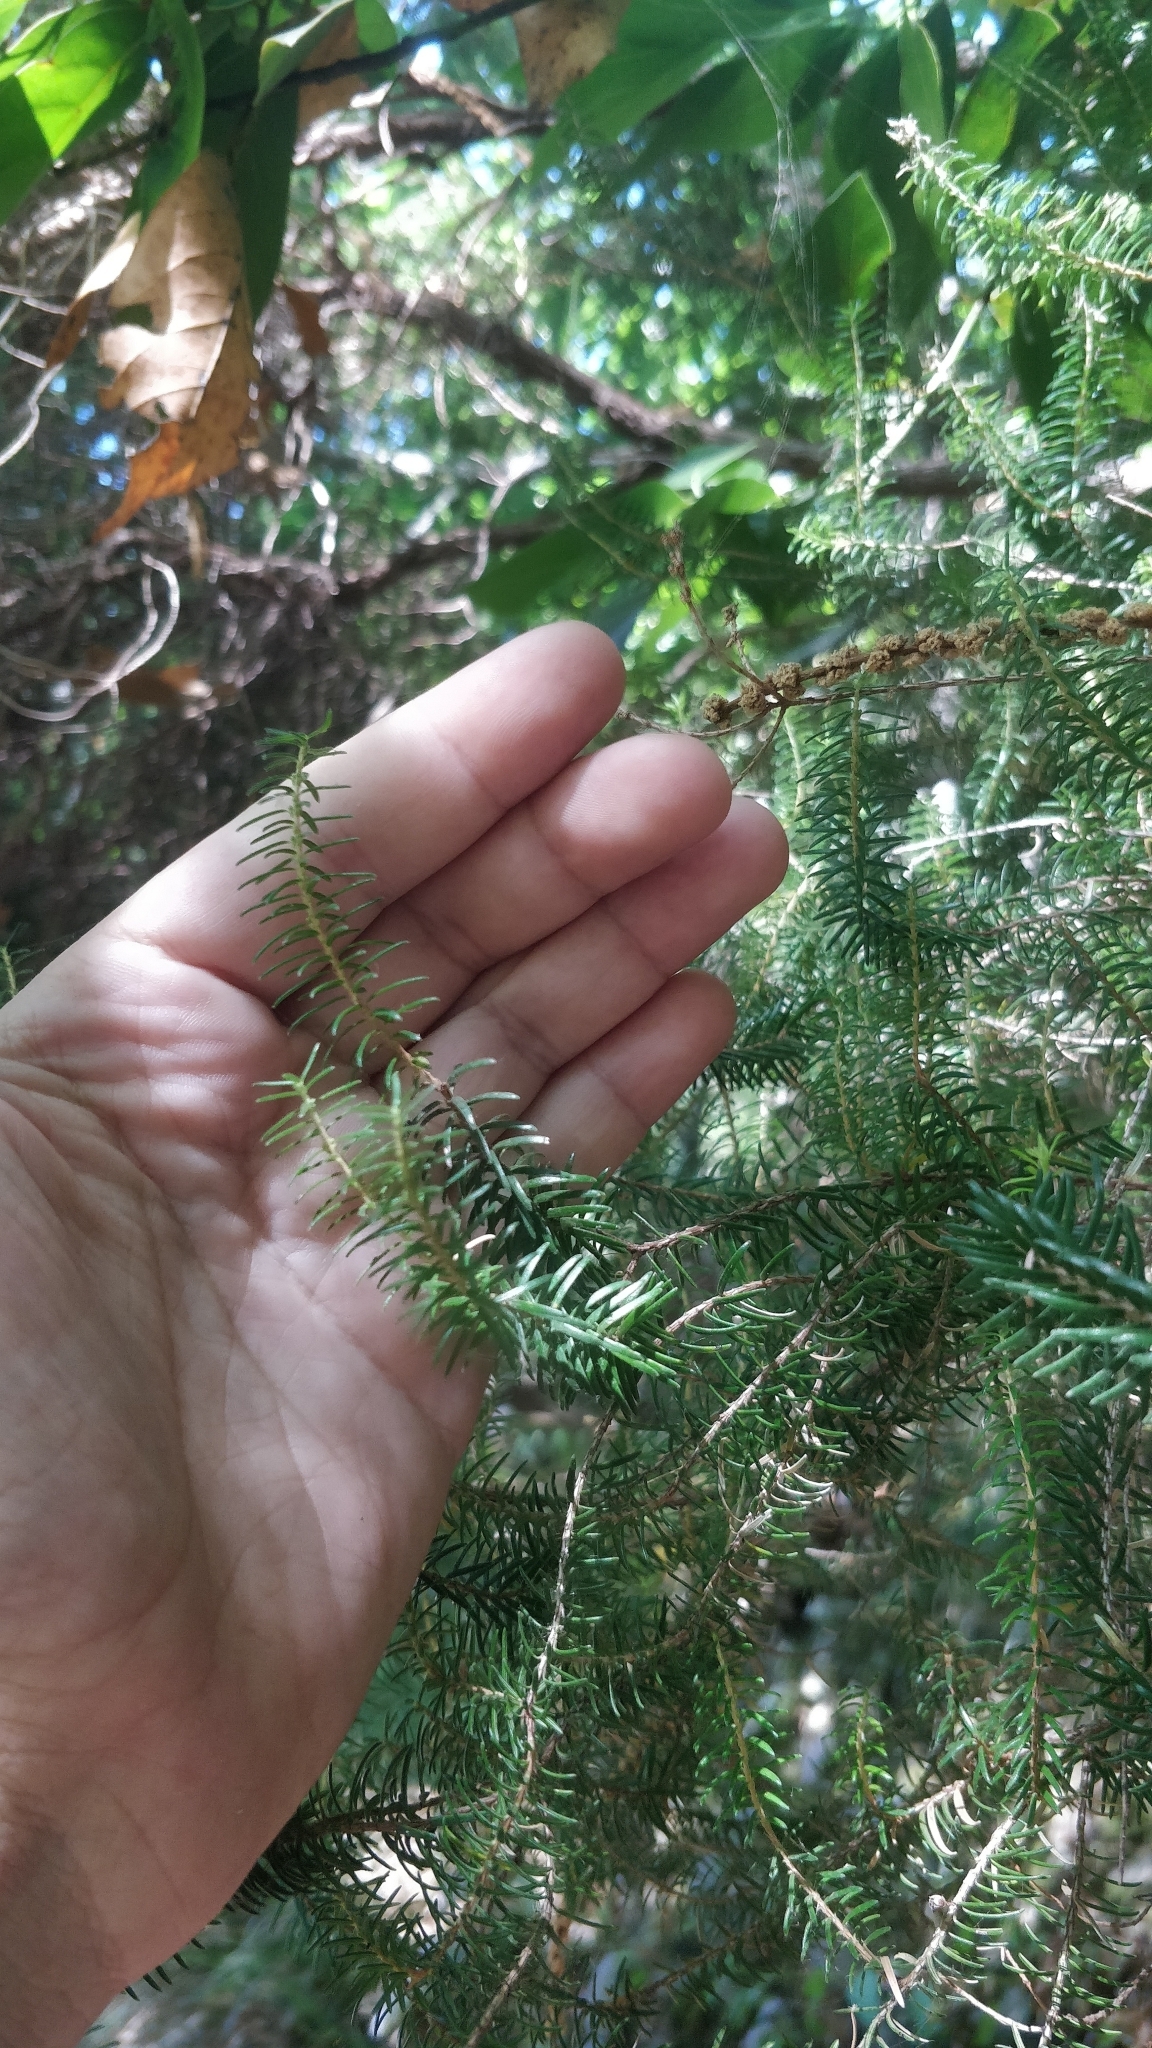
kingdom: Plantae
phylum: Tracheophyta
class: Magnoliopsida
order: Ericales
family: Ericaceae
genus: Erica
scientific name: Erica platycodon
